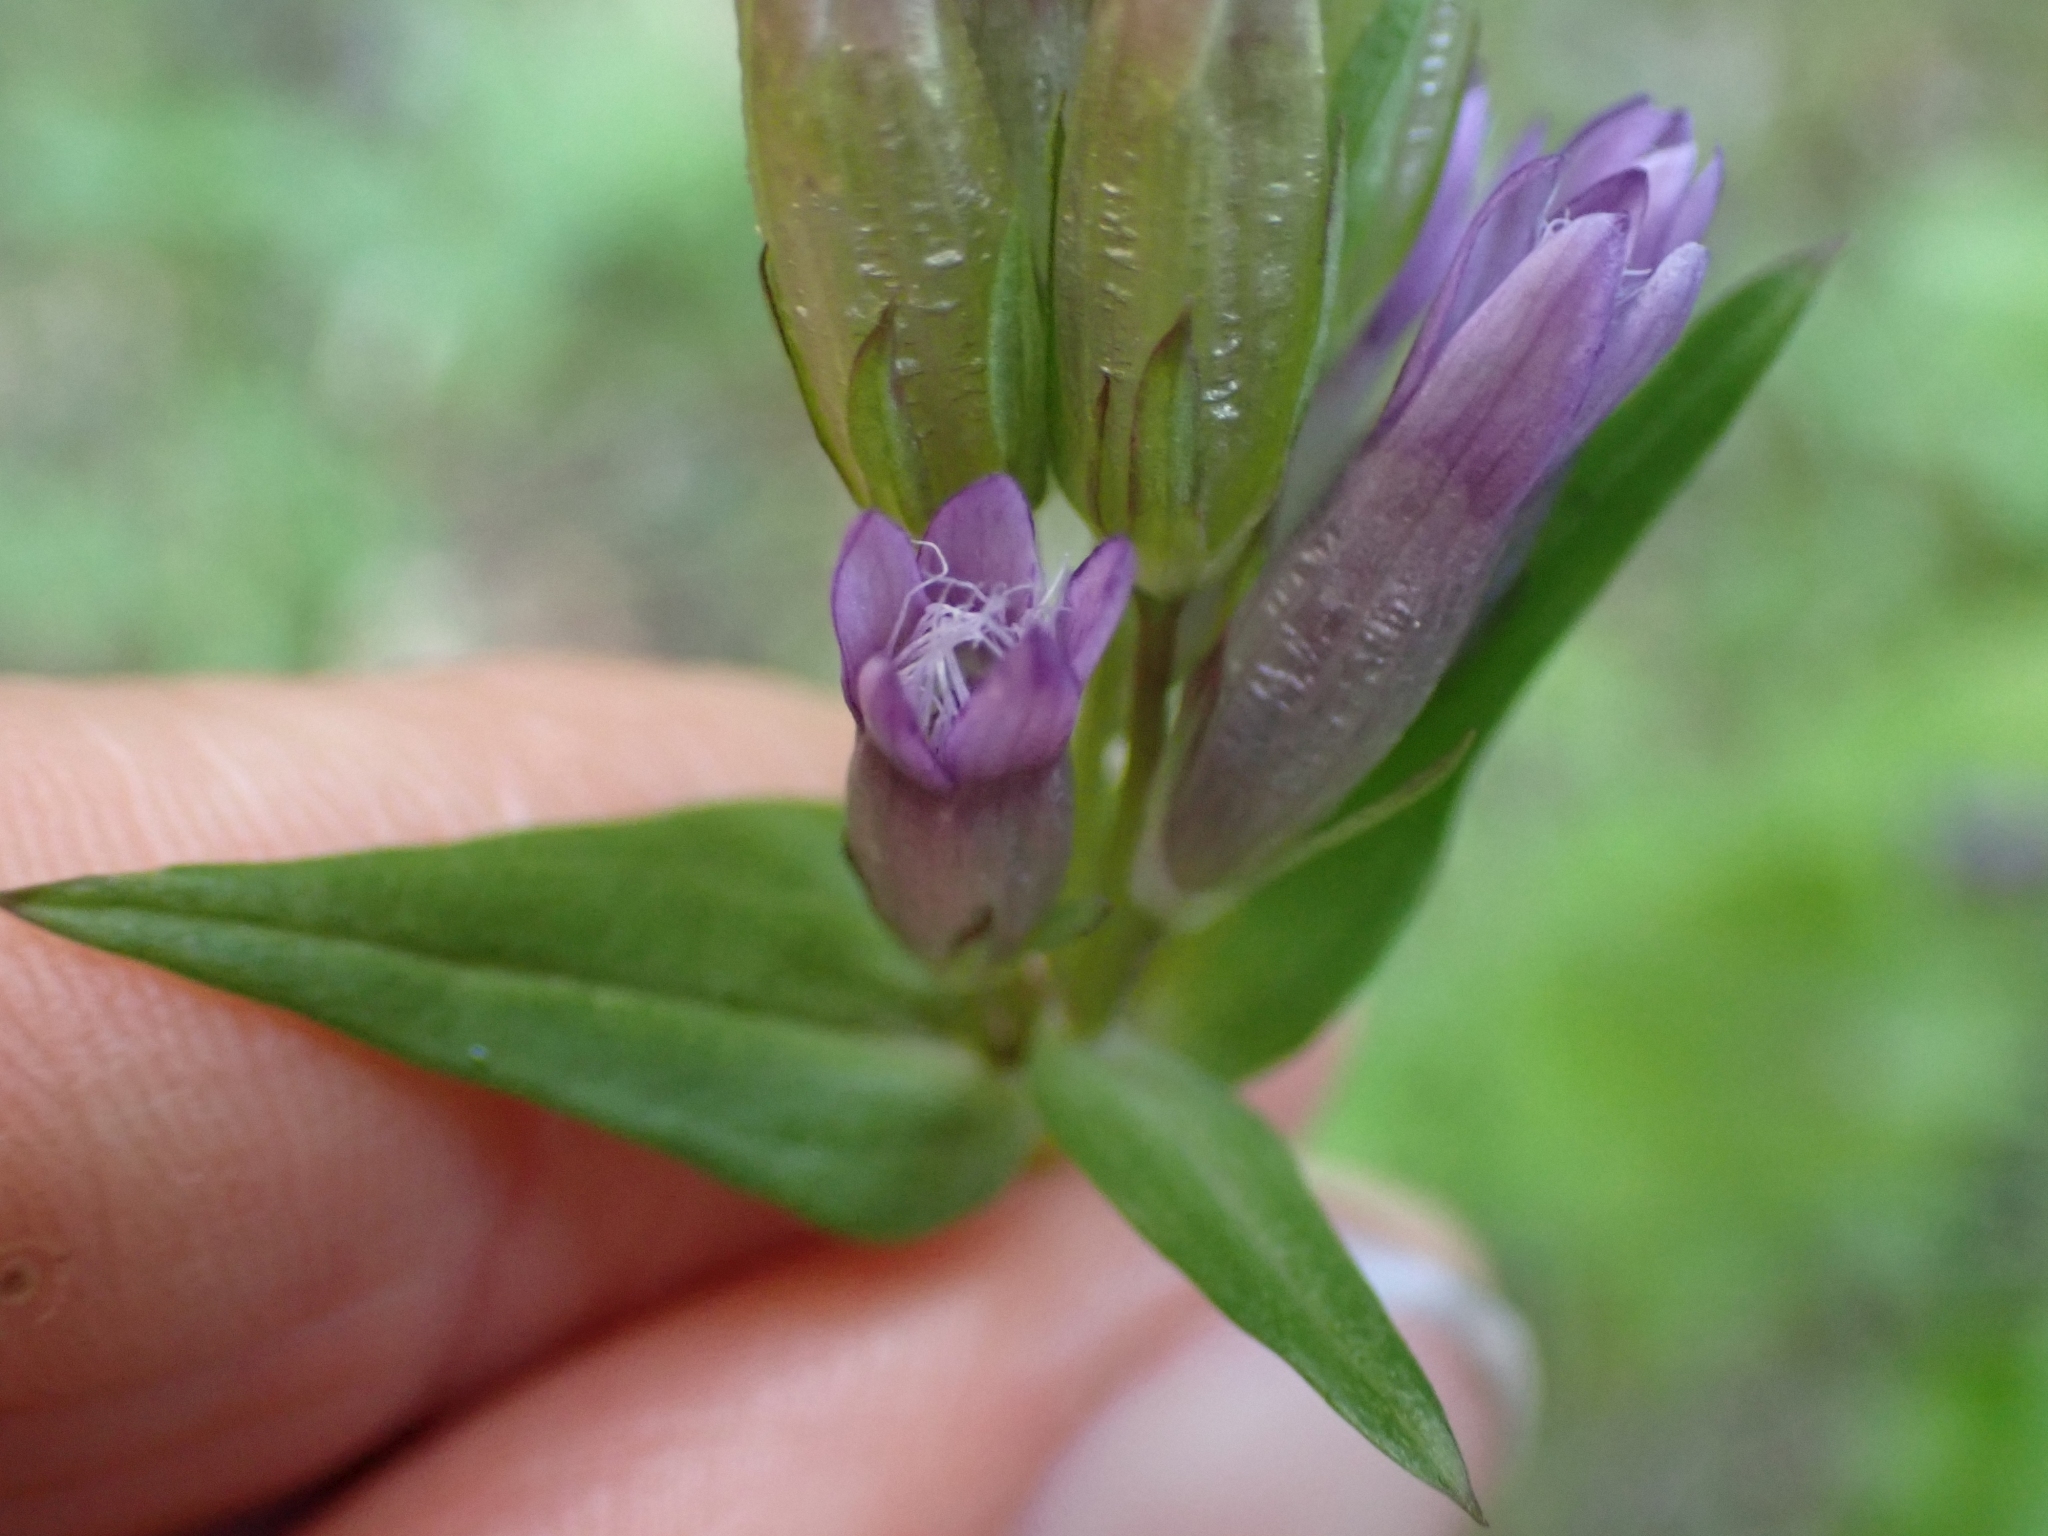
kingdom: Plantae
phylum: Tracheophyta
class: Magnoliopsida
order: Gentianales
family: Gentianaceae
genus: Gentianella
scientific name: Gentianella amarella
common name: Autumn gentian
